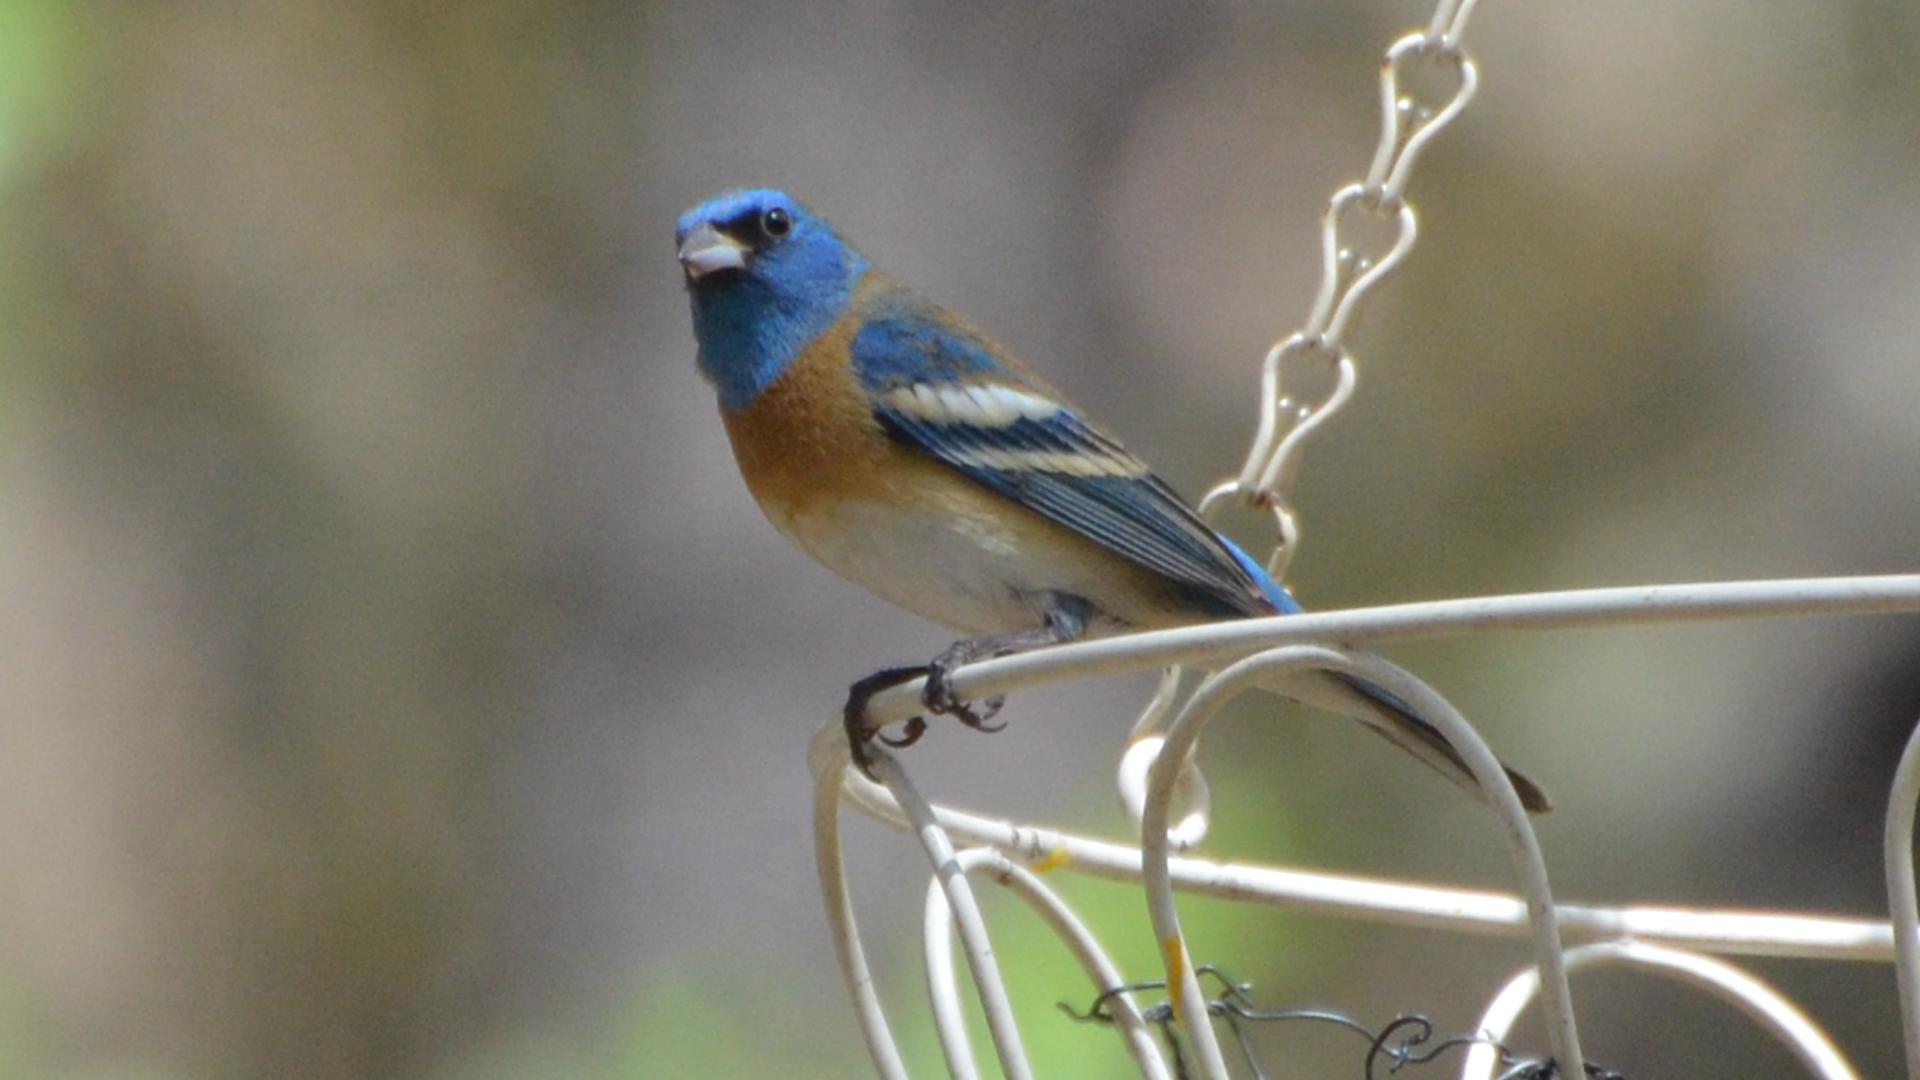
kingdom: Animalia
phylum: Chordata
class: Aves
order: Passeriformes
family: Cardinalidae
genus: Passerina
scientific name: Passerina amoena
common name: Lazuli bunting
